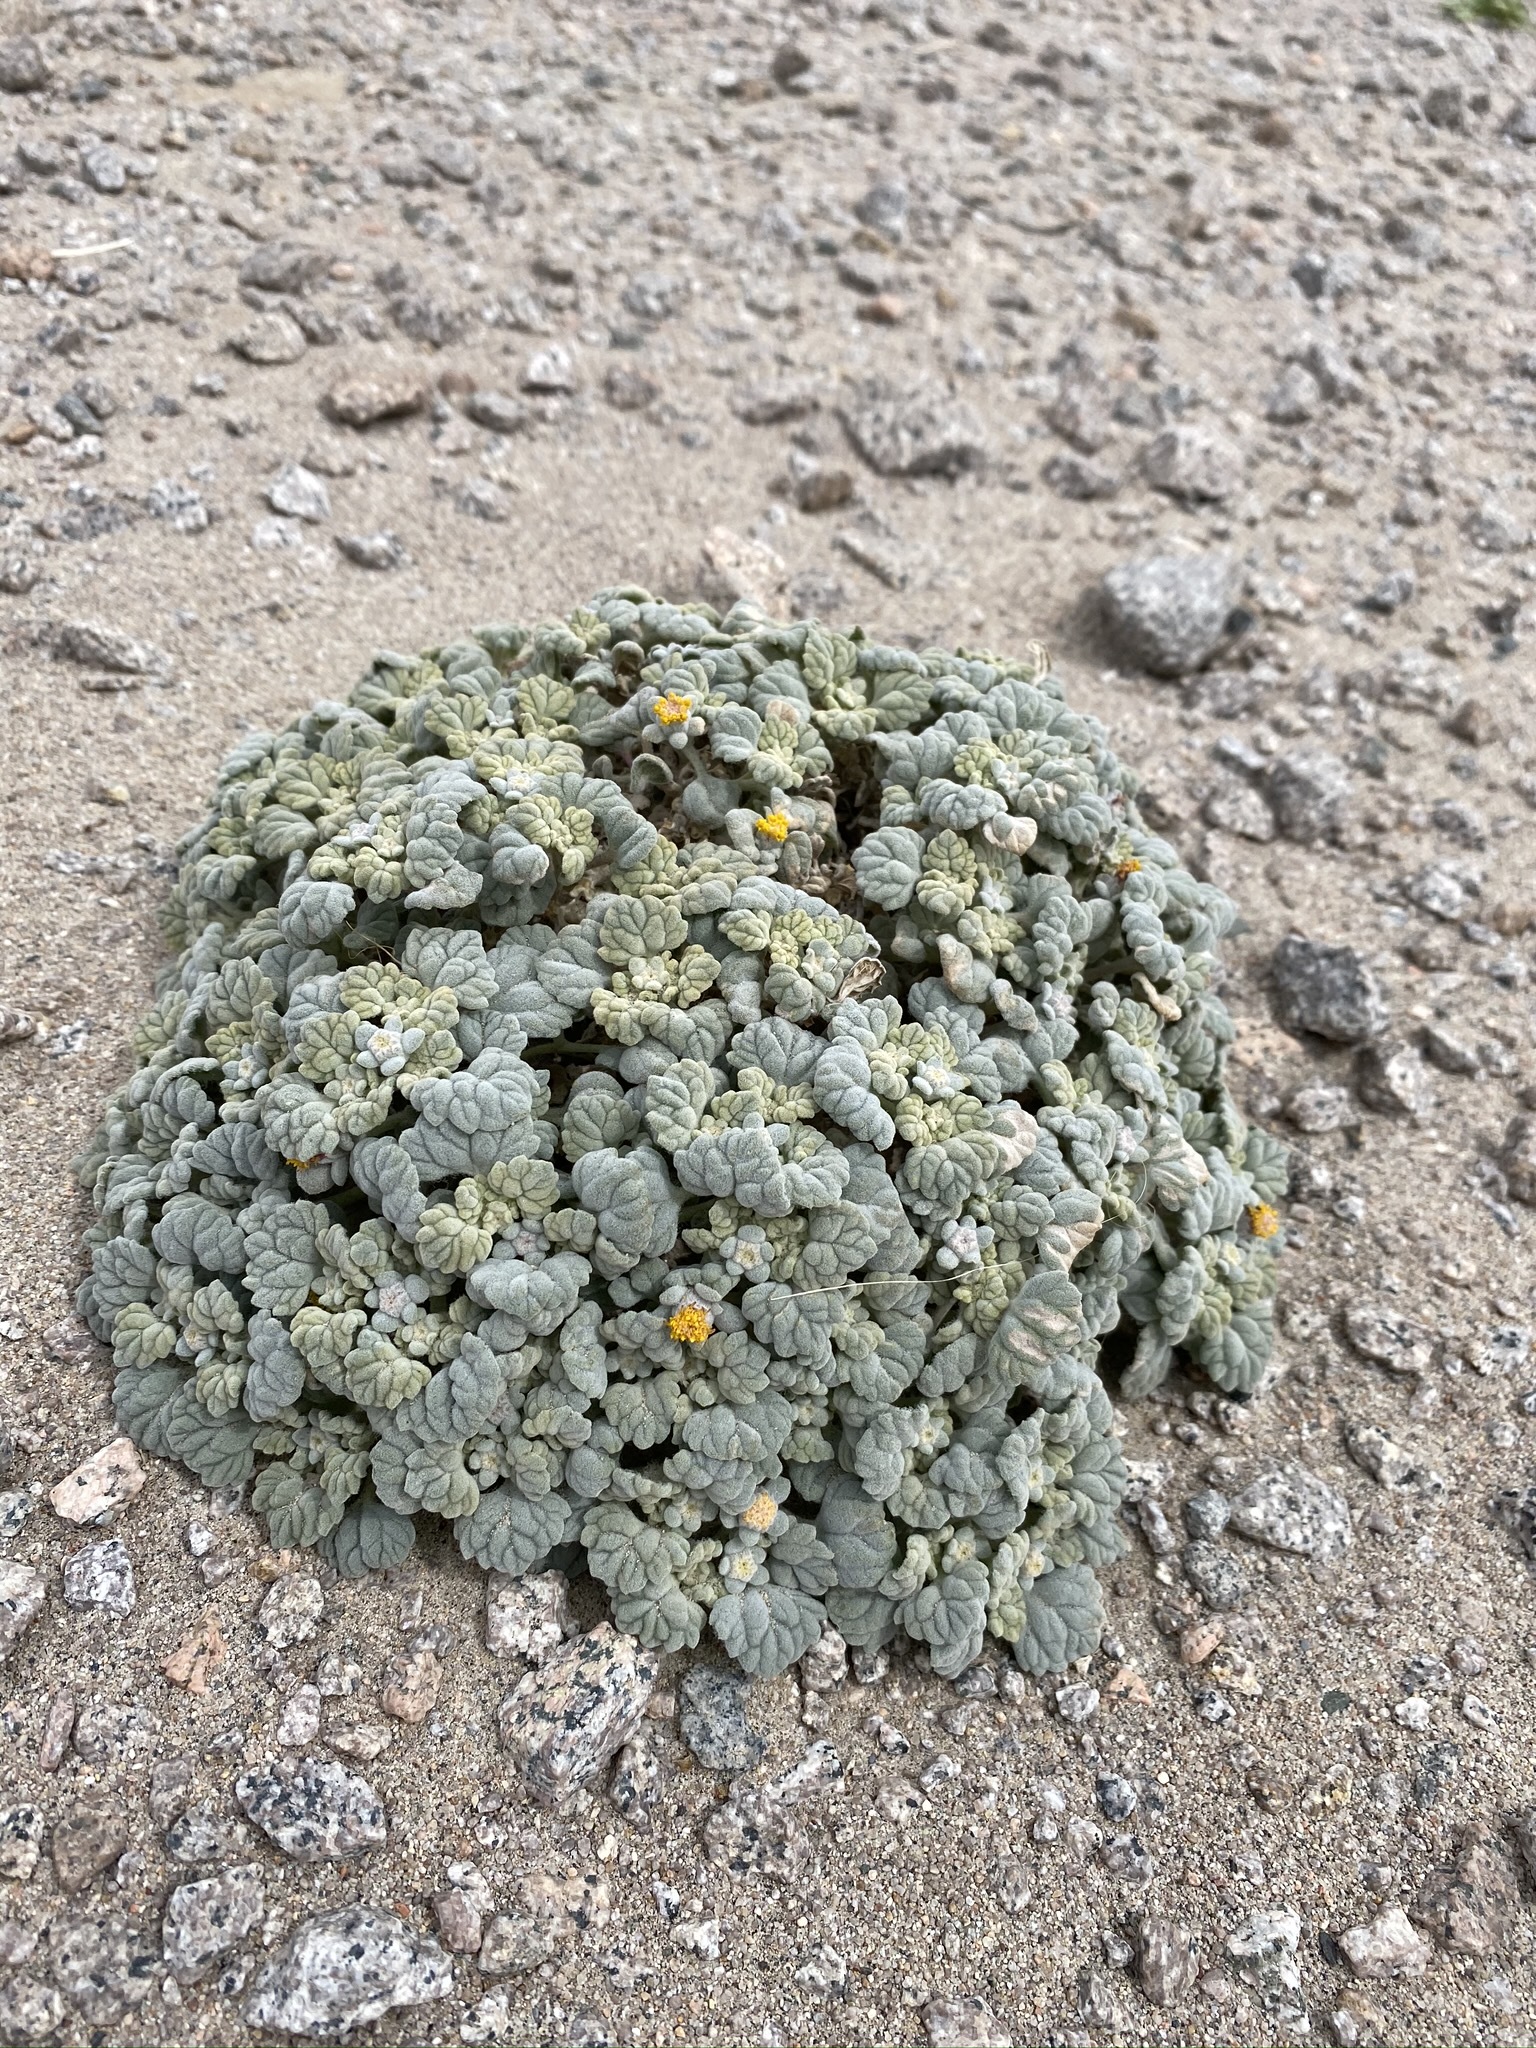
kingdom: Plantae
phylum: Tracheophyta
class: Magnoliopsida
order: Asterales
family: Asteraceae
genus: Psathyrotes
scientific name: Psathyrotes ramosissima
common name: Turtleback
